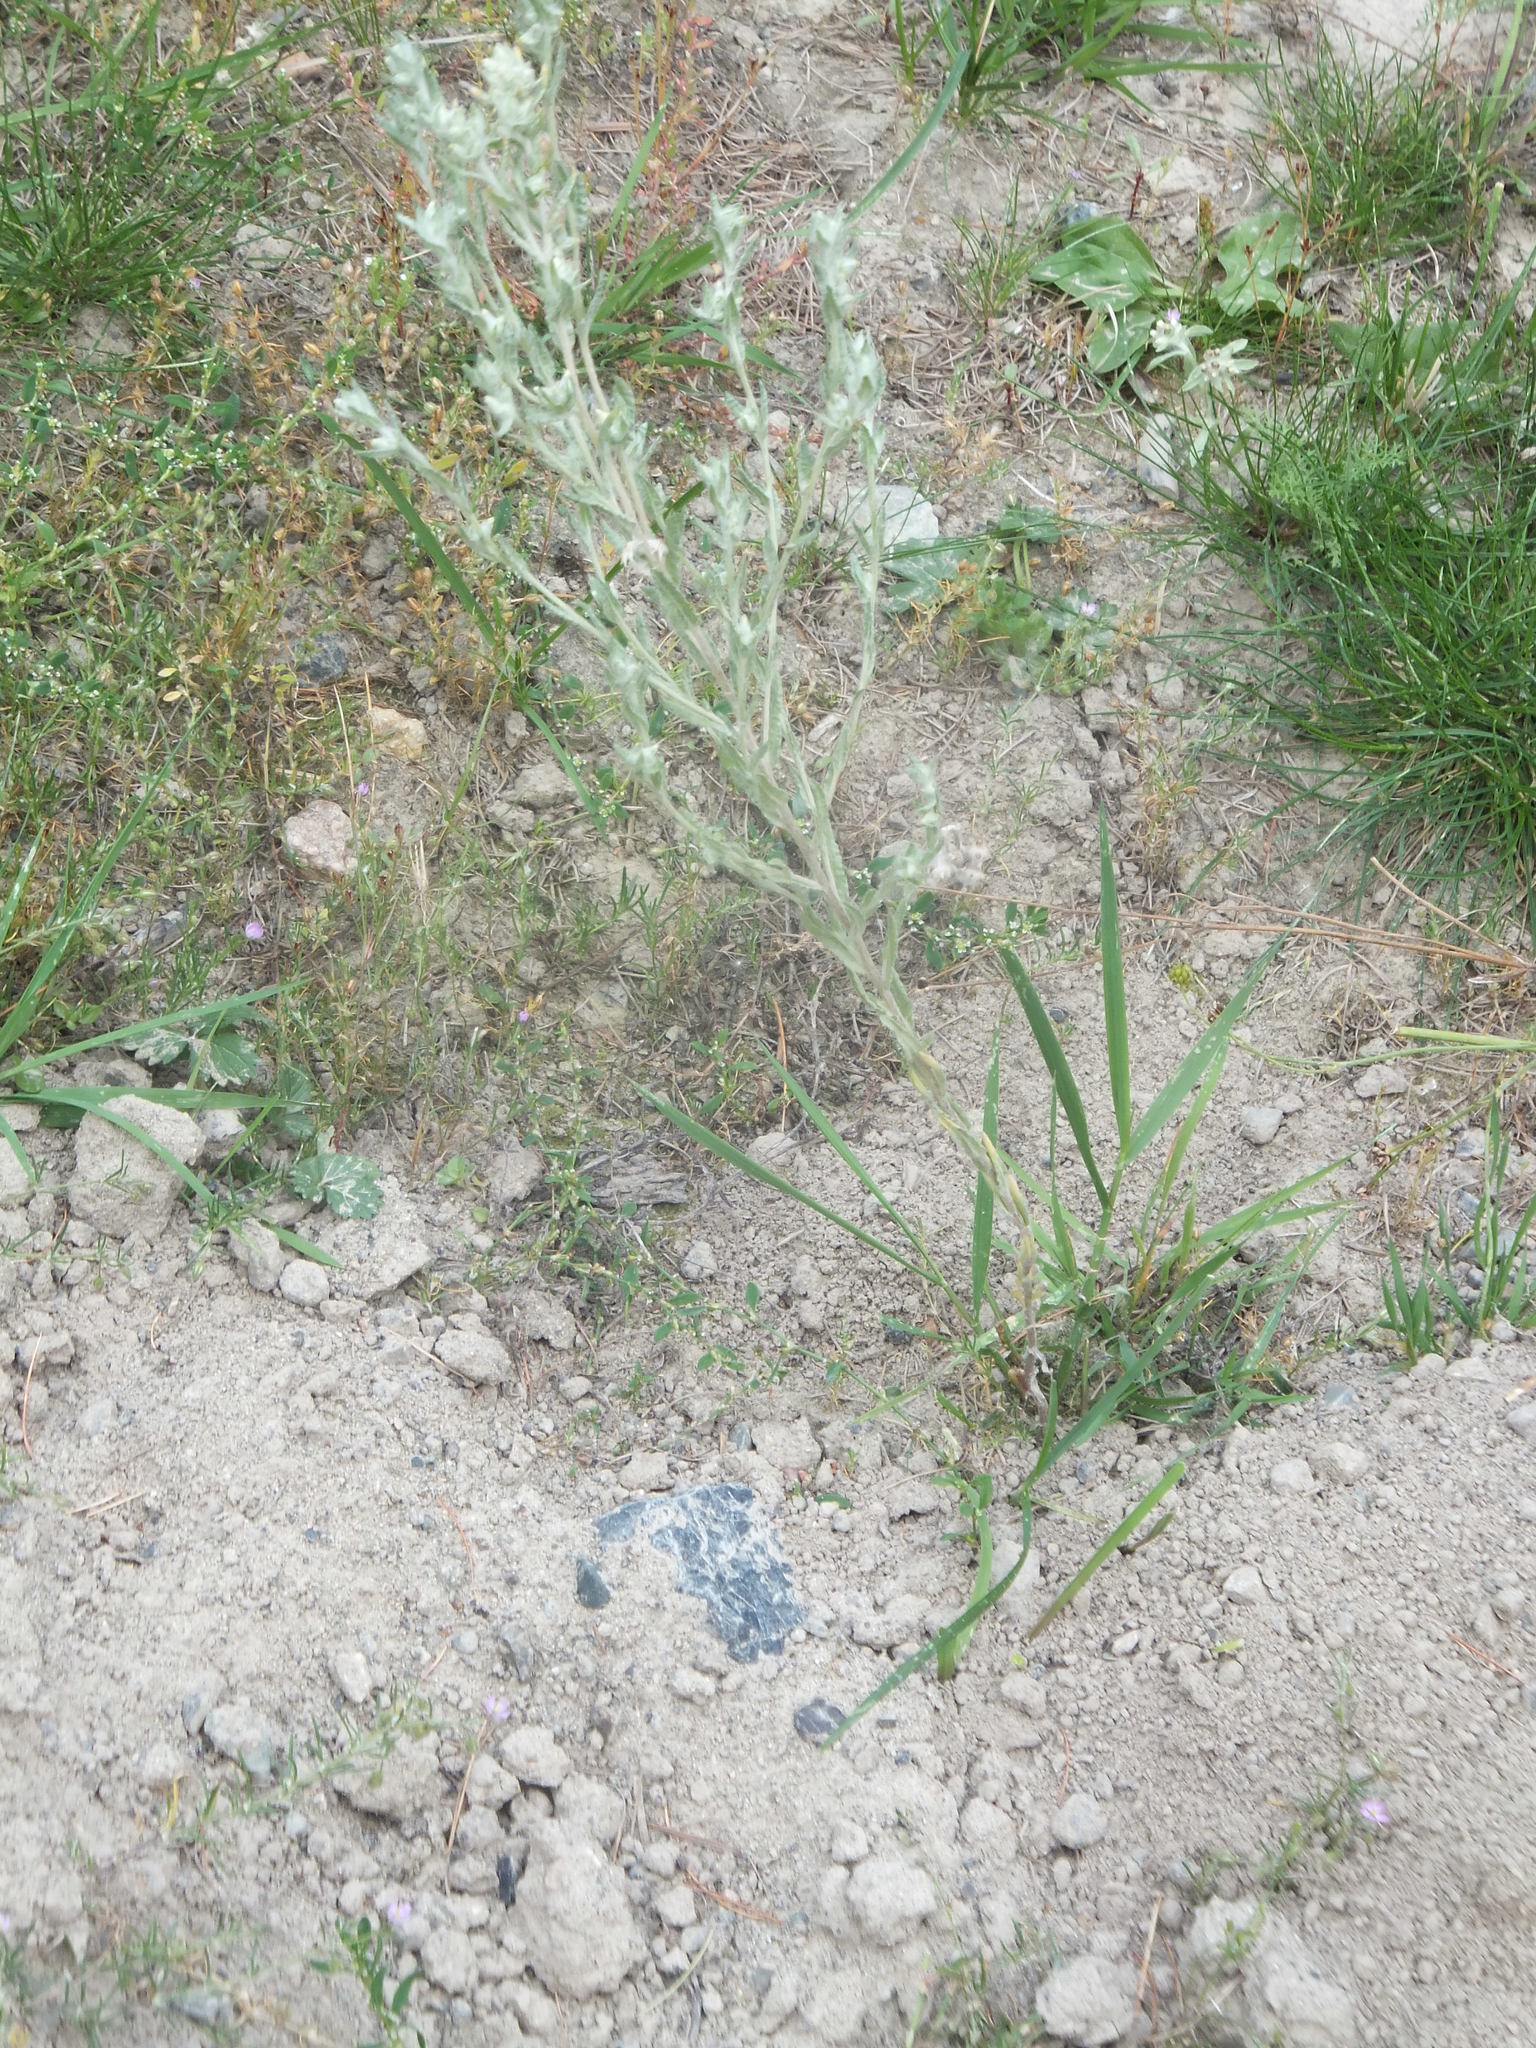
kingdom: Plantae
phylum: Tracheophyta
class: Magnoliopsida
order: Asterales
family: Asteraceae
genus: Filago
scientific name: Filago arvensis
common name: Field cudweed
